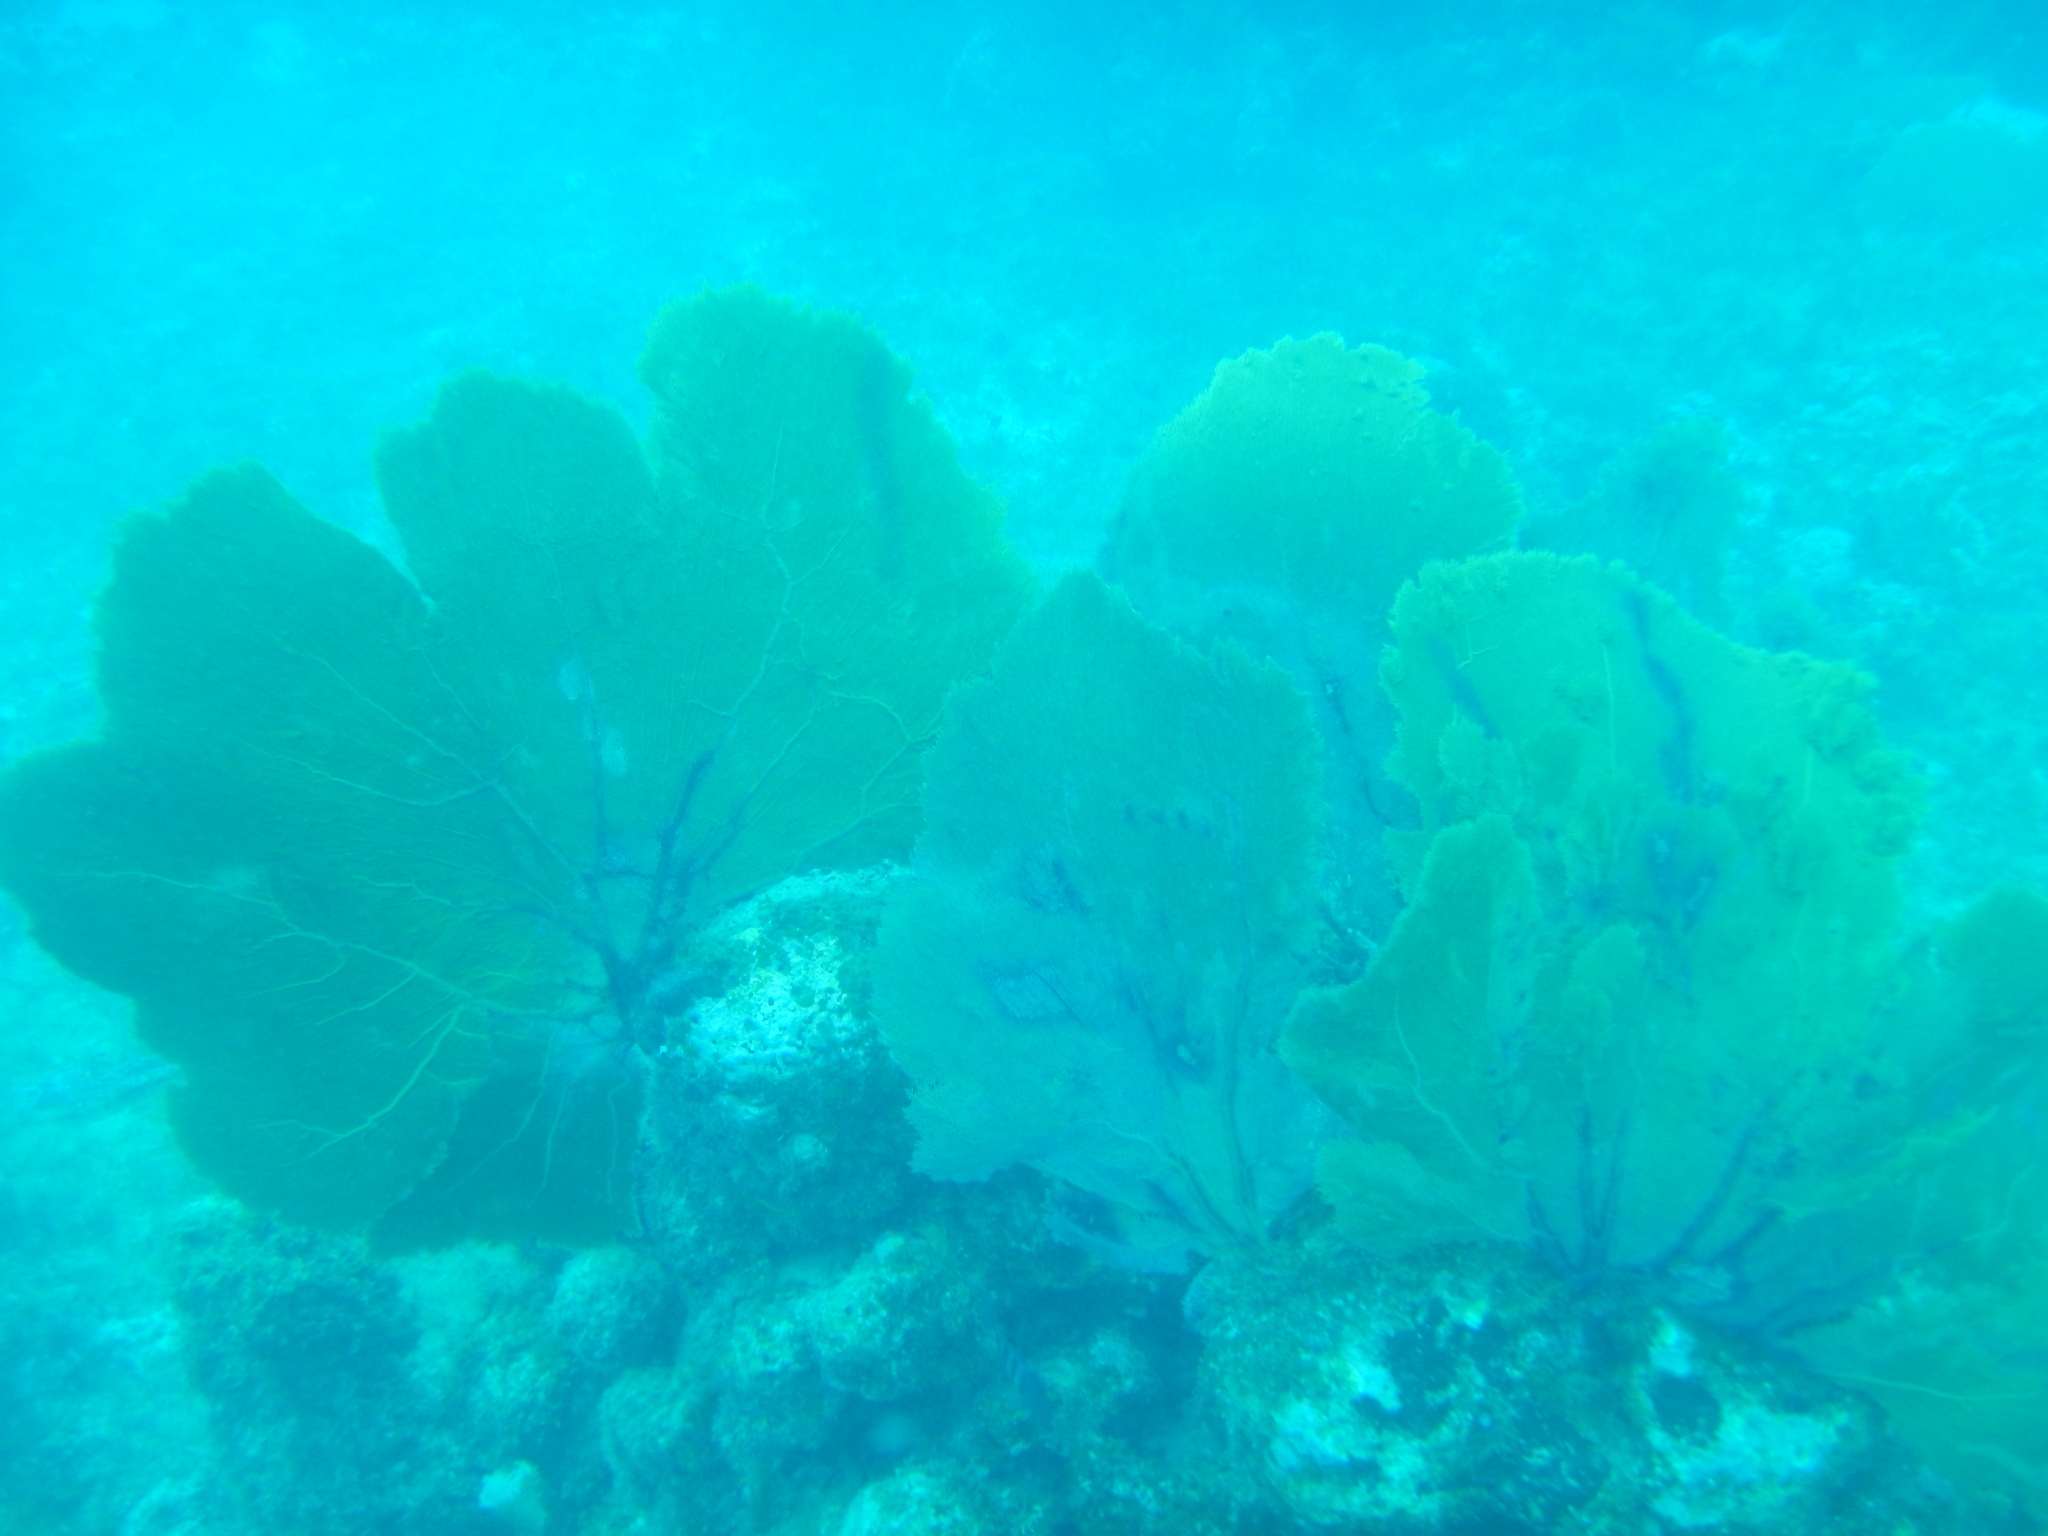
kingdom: Animalia
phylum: Cnidaria
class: Anthozoa
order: Malacalcyonacea
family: Gorgoniidae
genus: Gorgonia
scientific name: Gorgonia ventalina
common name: Common sea fan
